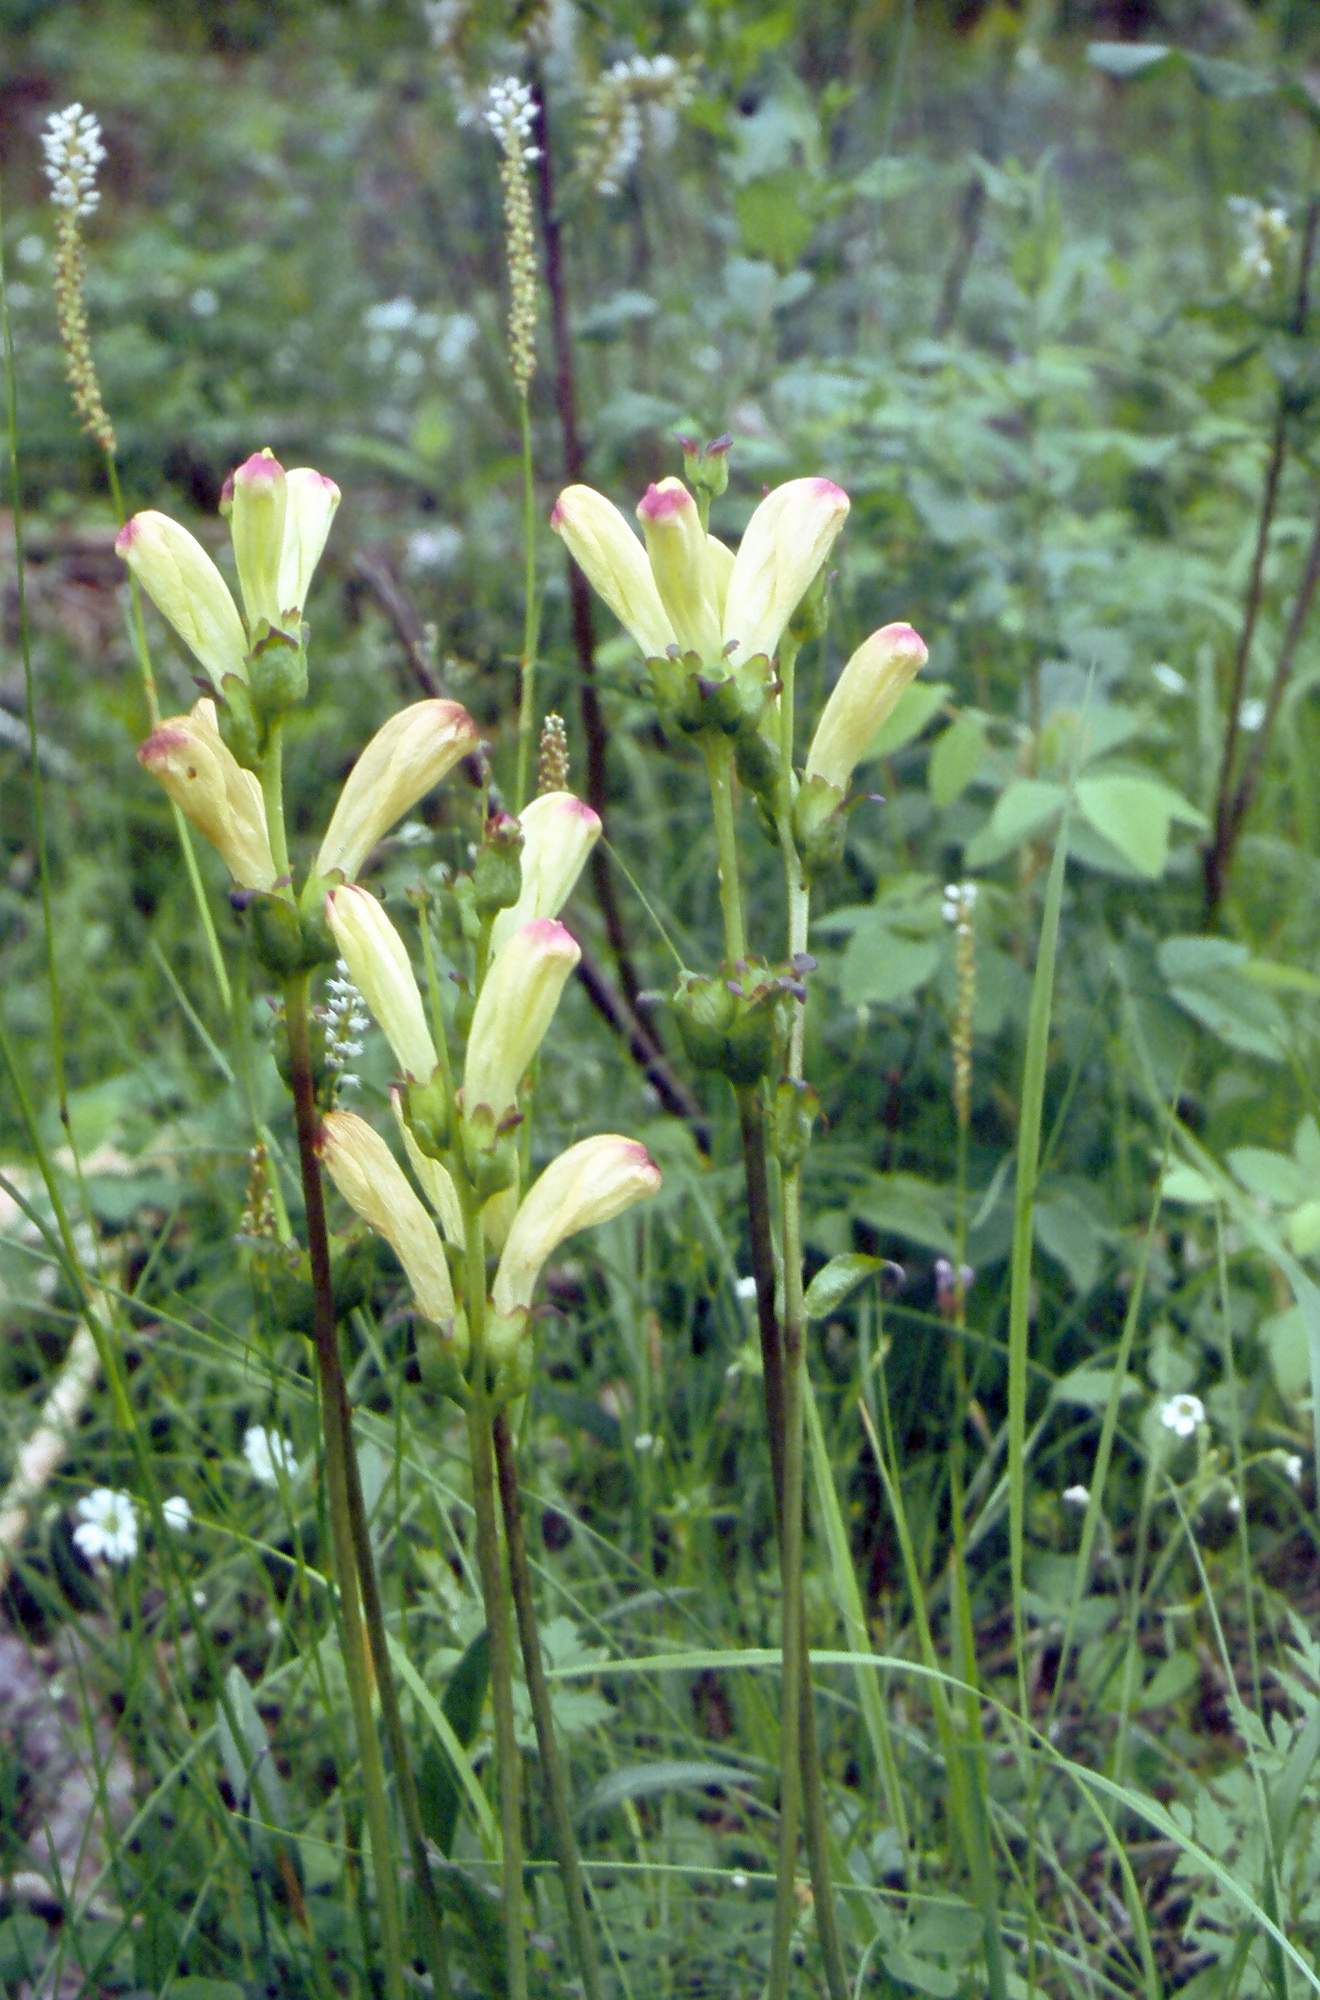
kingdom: Plantae
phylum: Tracheophyta
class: Magnoliopsida
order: Lamiales
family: Orobanchaceae
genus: Pedicularis
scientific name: Pedicularis sceptrum-carolinum
